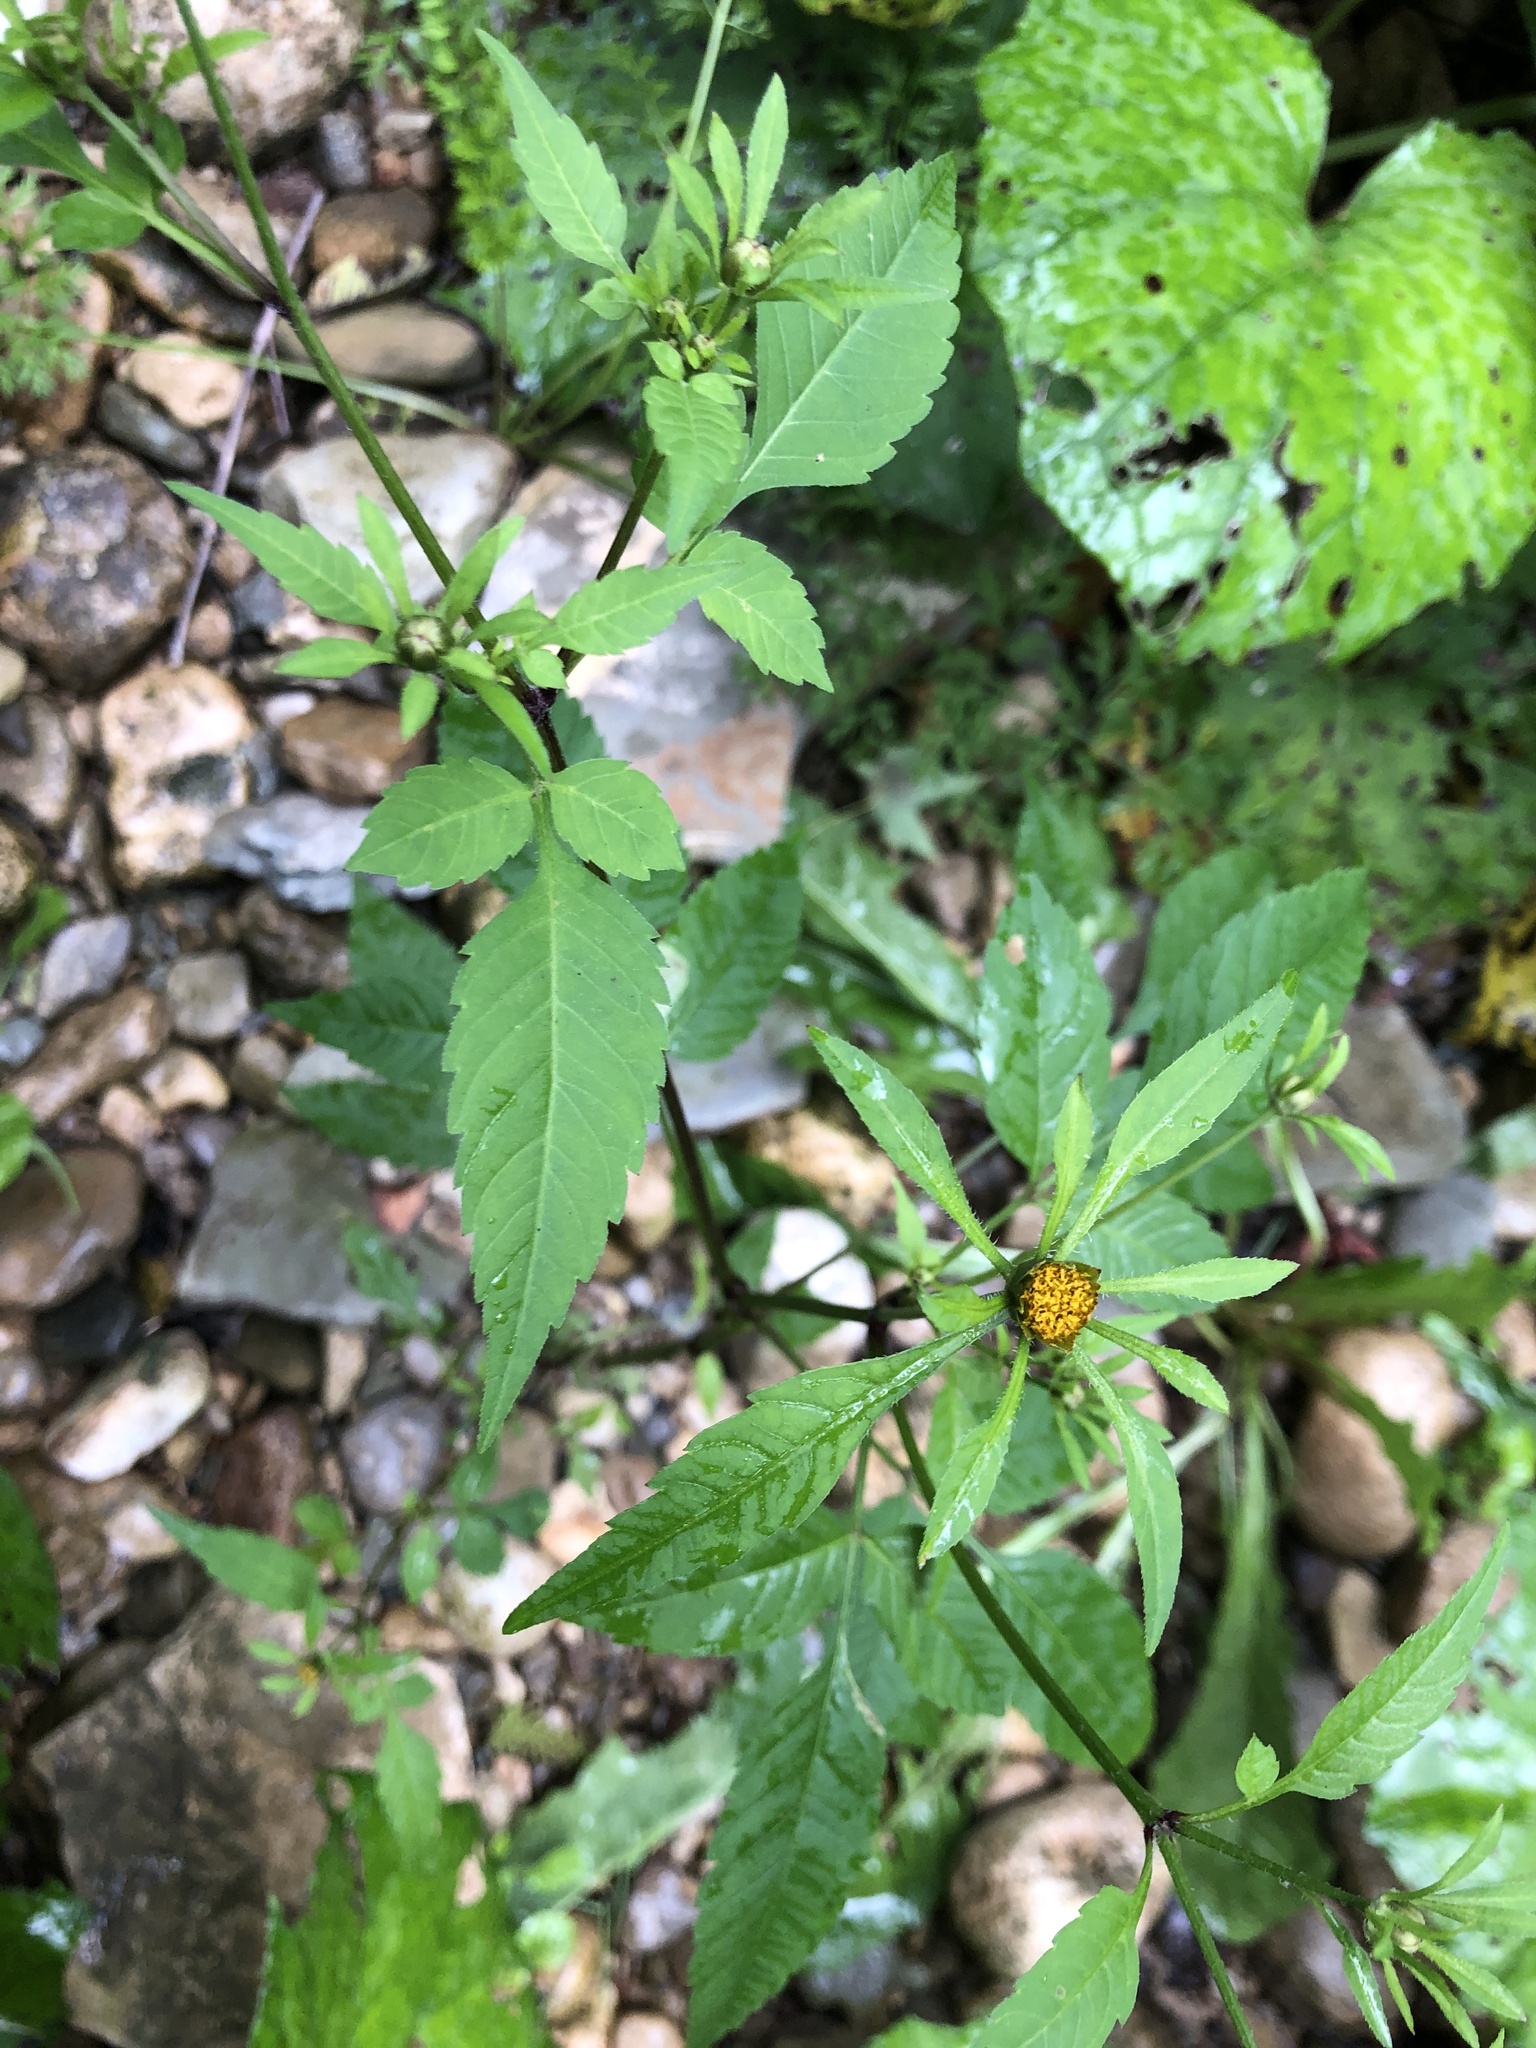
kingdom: Plantae
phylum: Tracheophyta
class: Magnoliopsida
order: Asterales
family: Asteraceae
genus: Bidens
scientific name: Bidens frondosa
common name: Beggarticks
